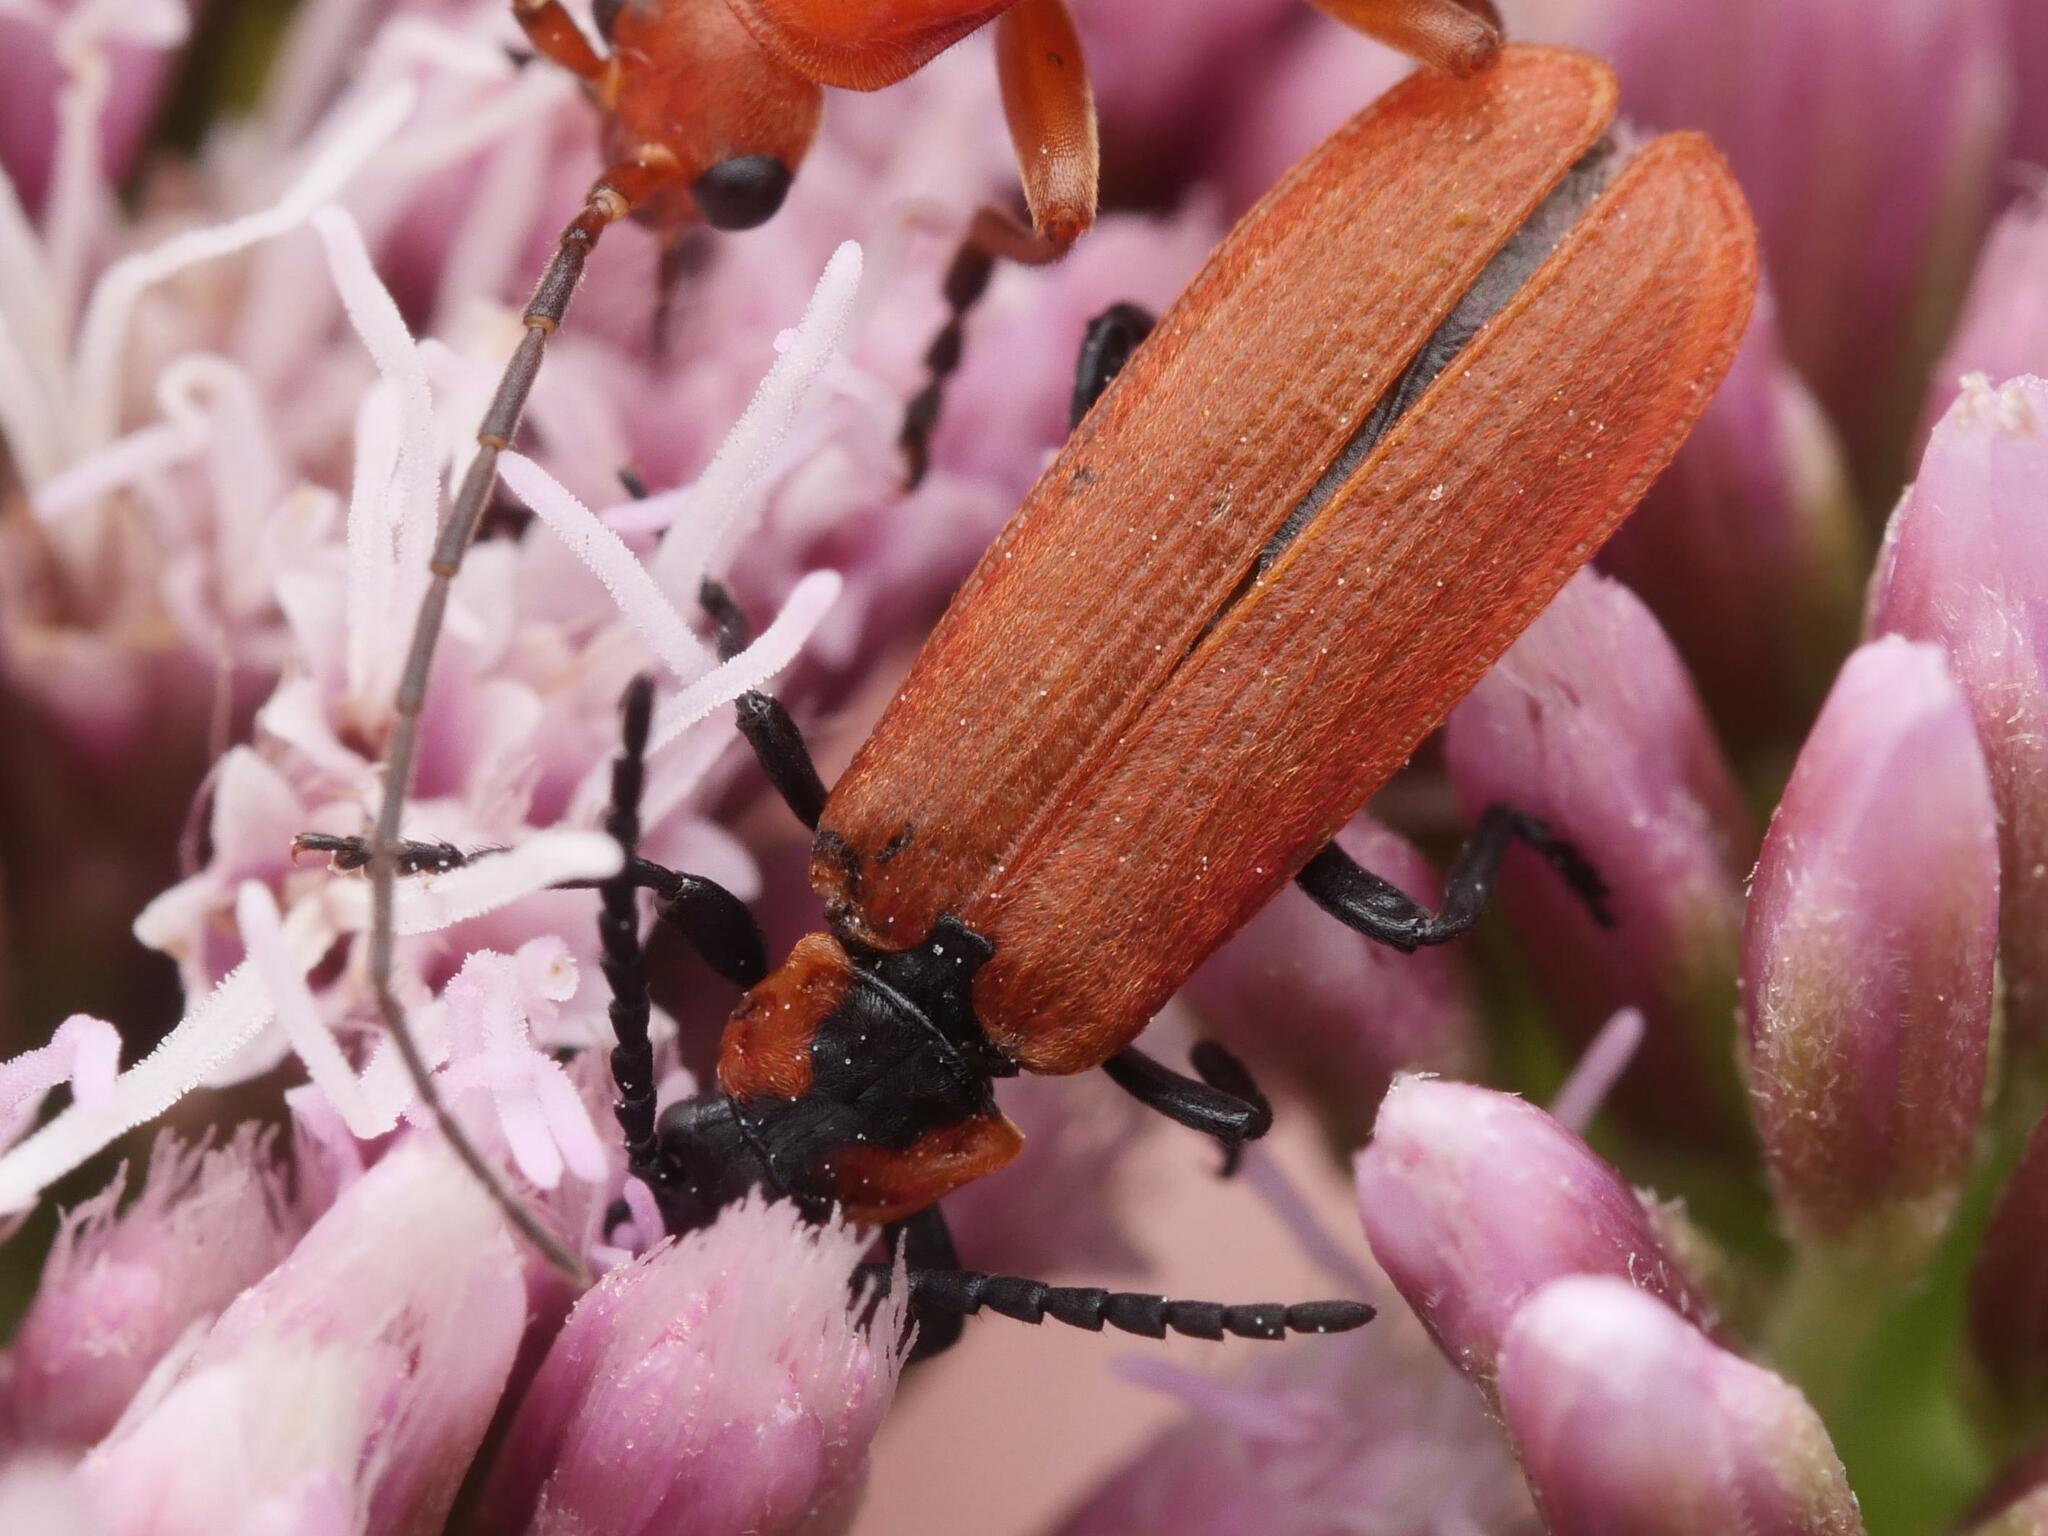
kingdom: Animalia
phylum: Arthropoda
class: Insecta
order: Coleoptera
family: Lycidae
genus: Lygistopterus
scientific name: Lygistopterus sanguineus
